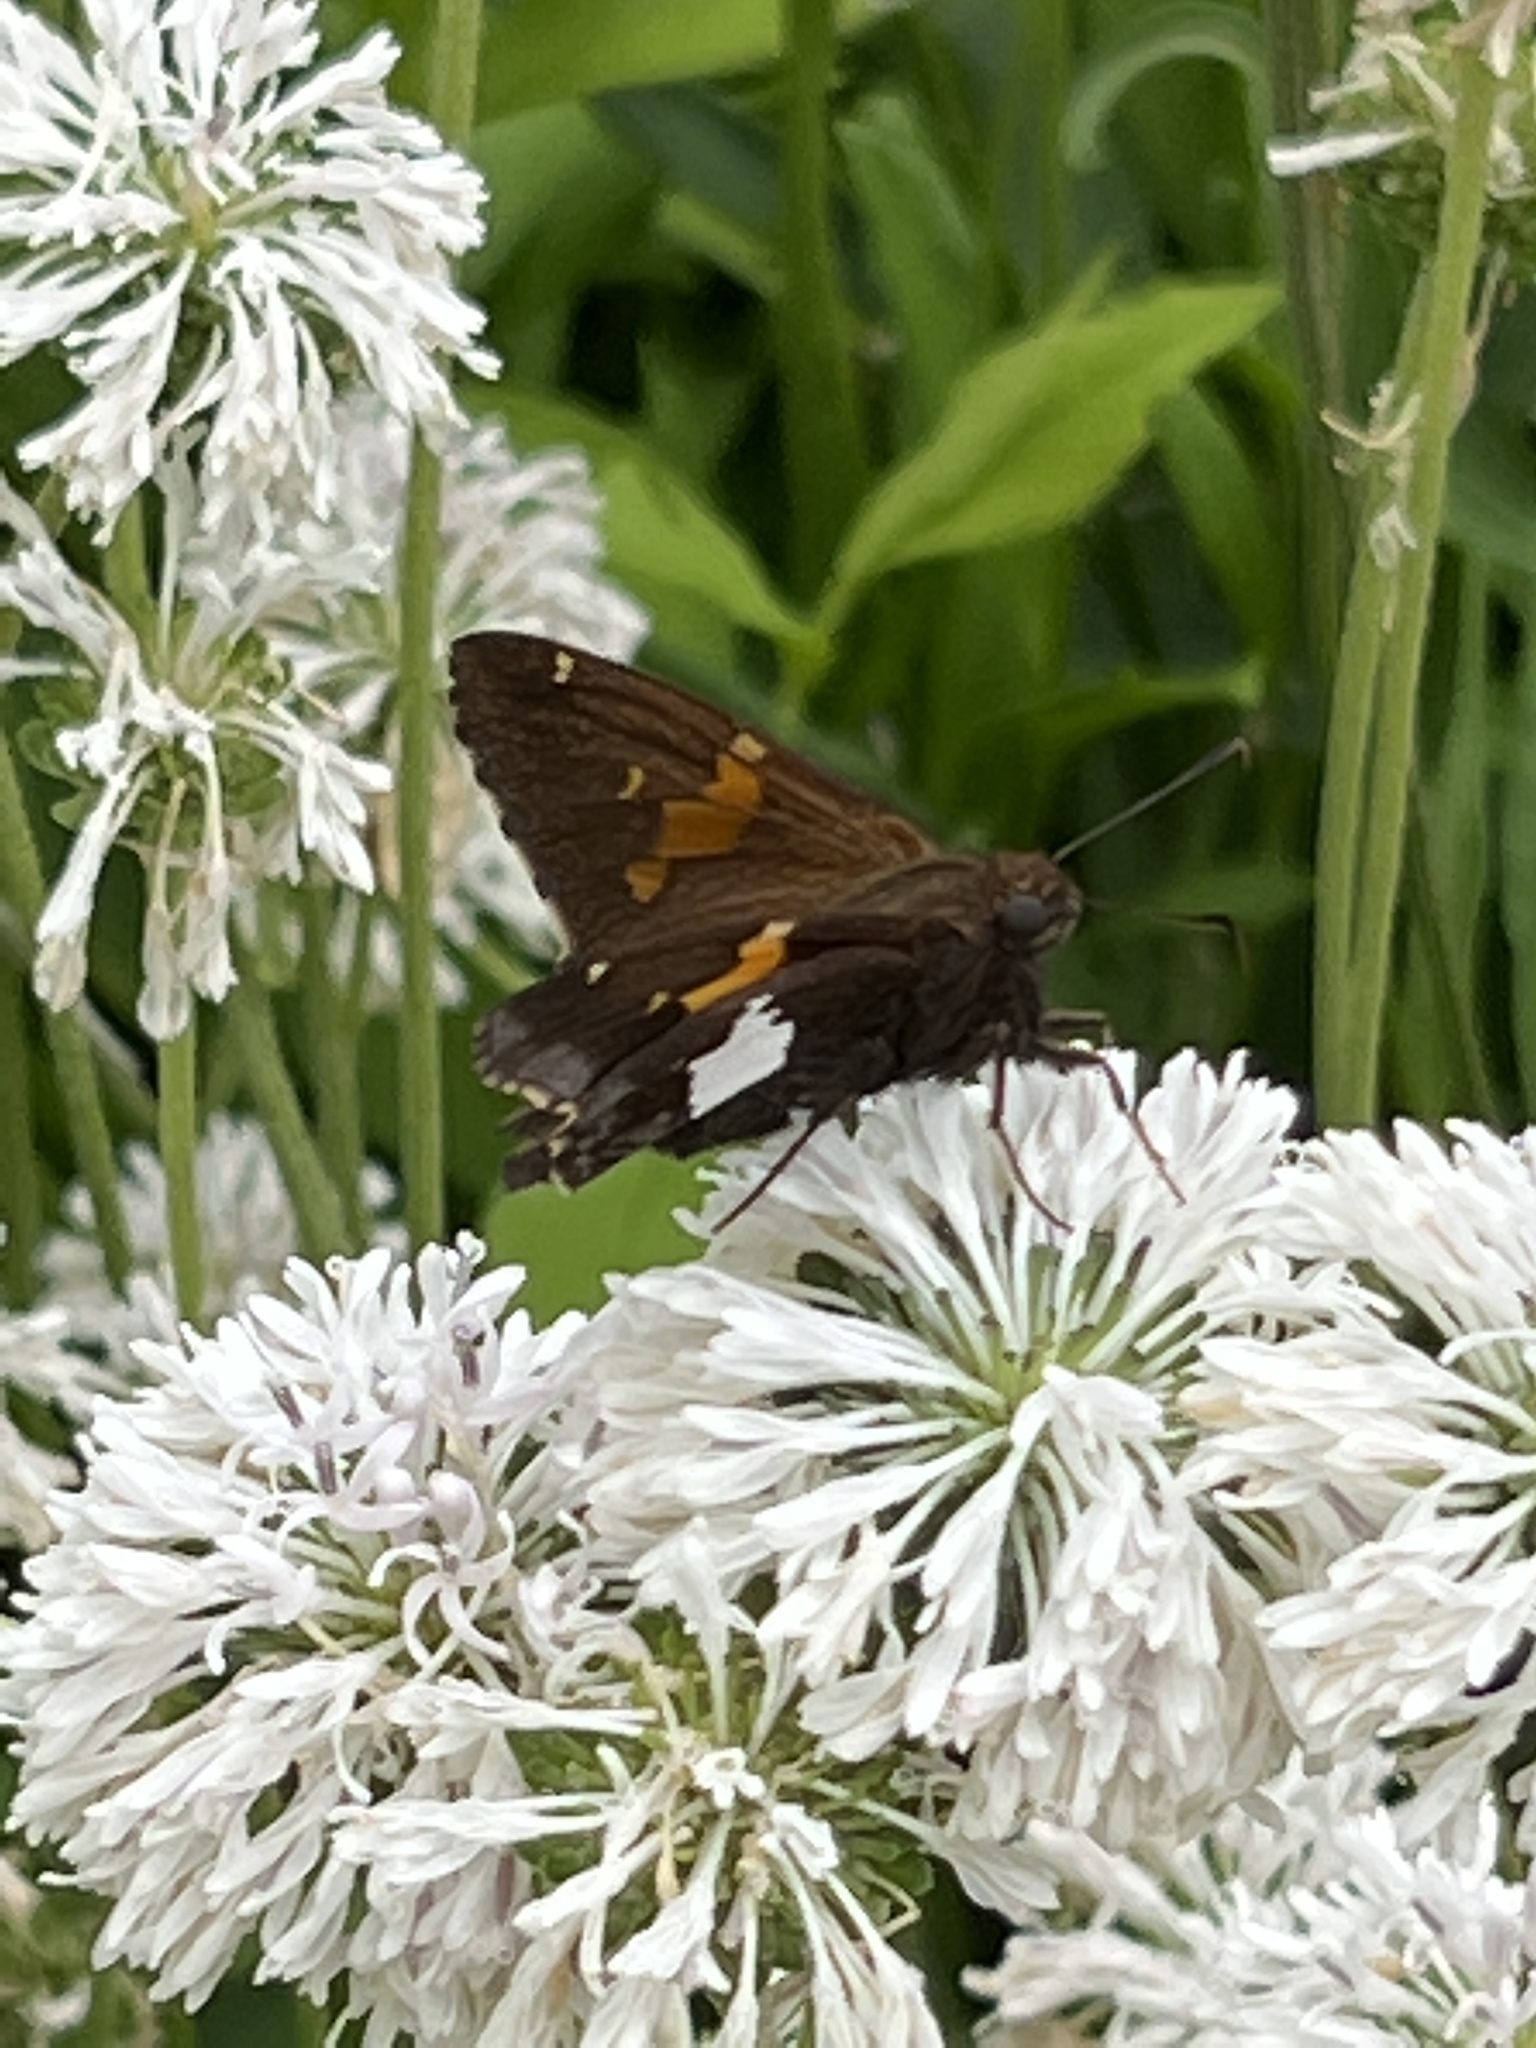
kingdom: Animalia
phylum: Arthropoda
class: Insecta
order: Lepidoptera
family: Hesperiidae
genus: Epargyreus
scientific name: Epargyreus clarus
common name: Silver-spotted skipper
